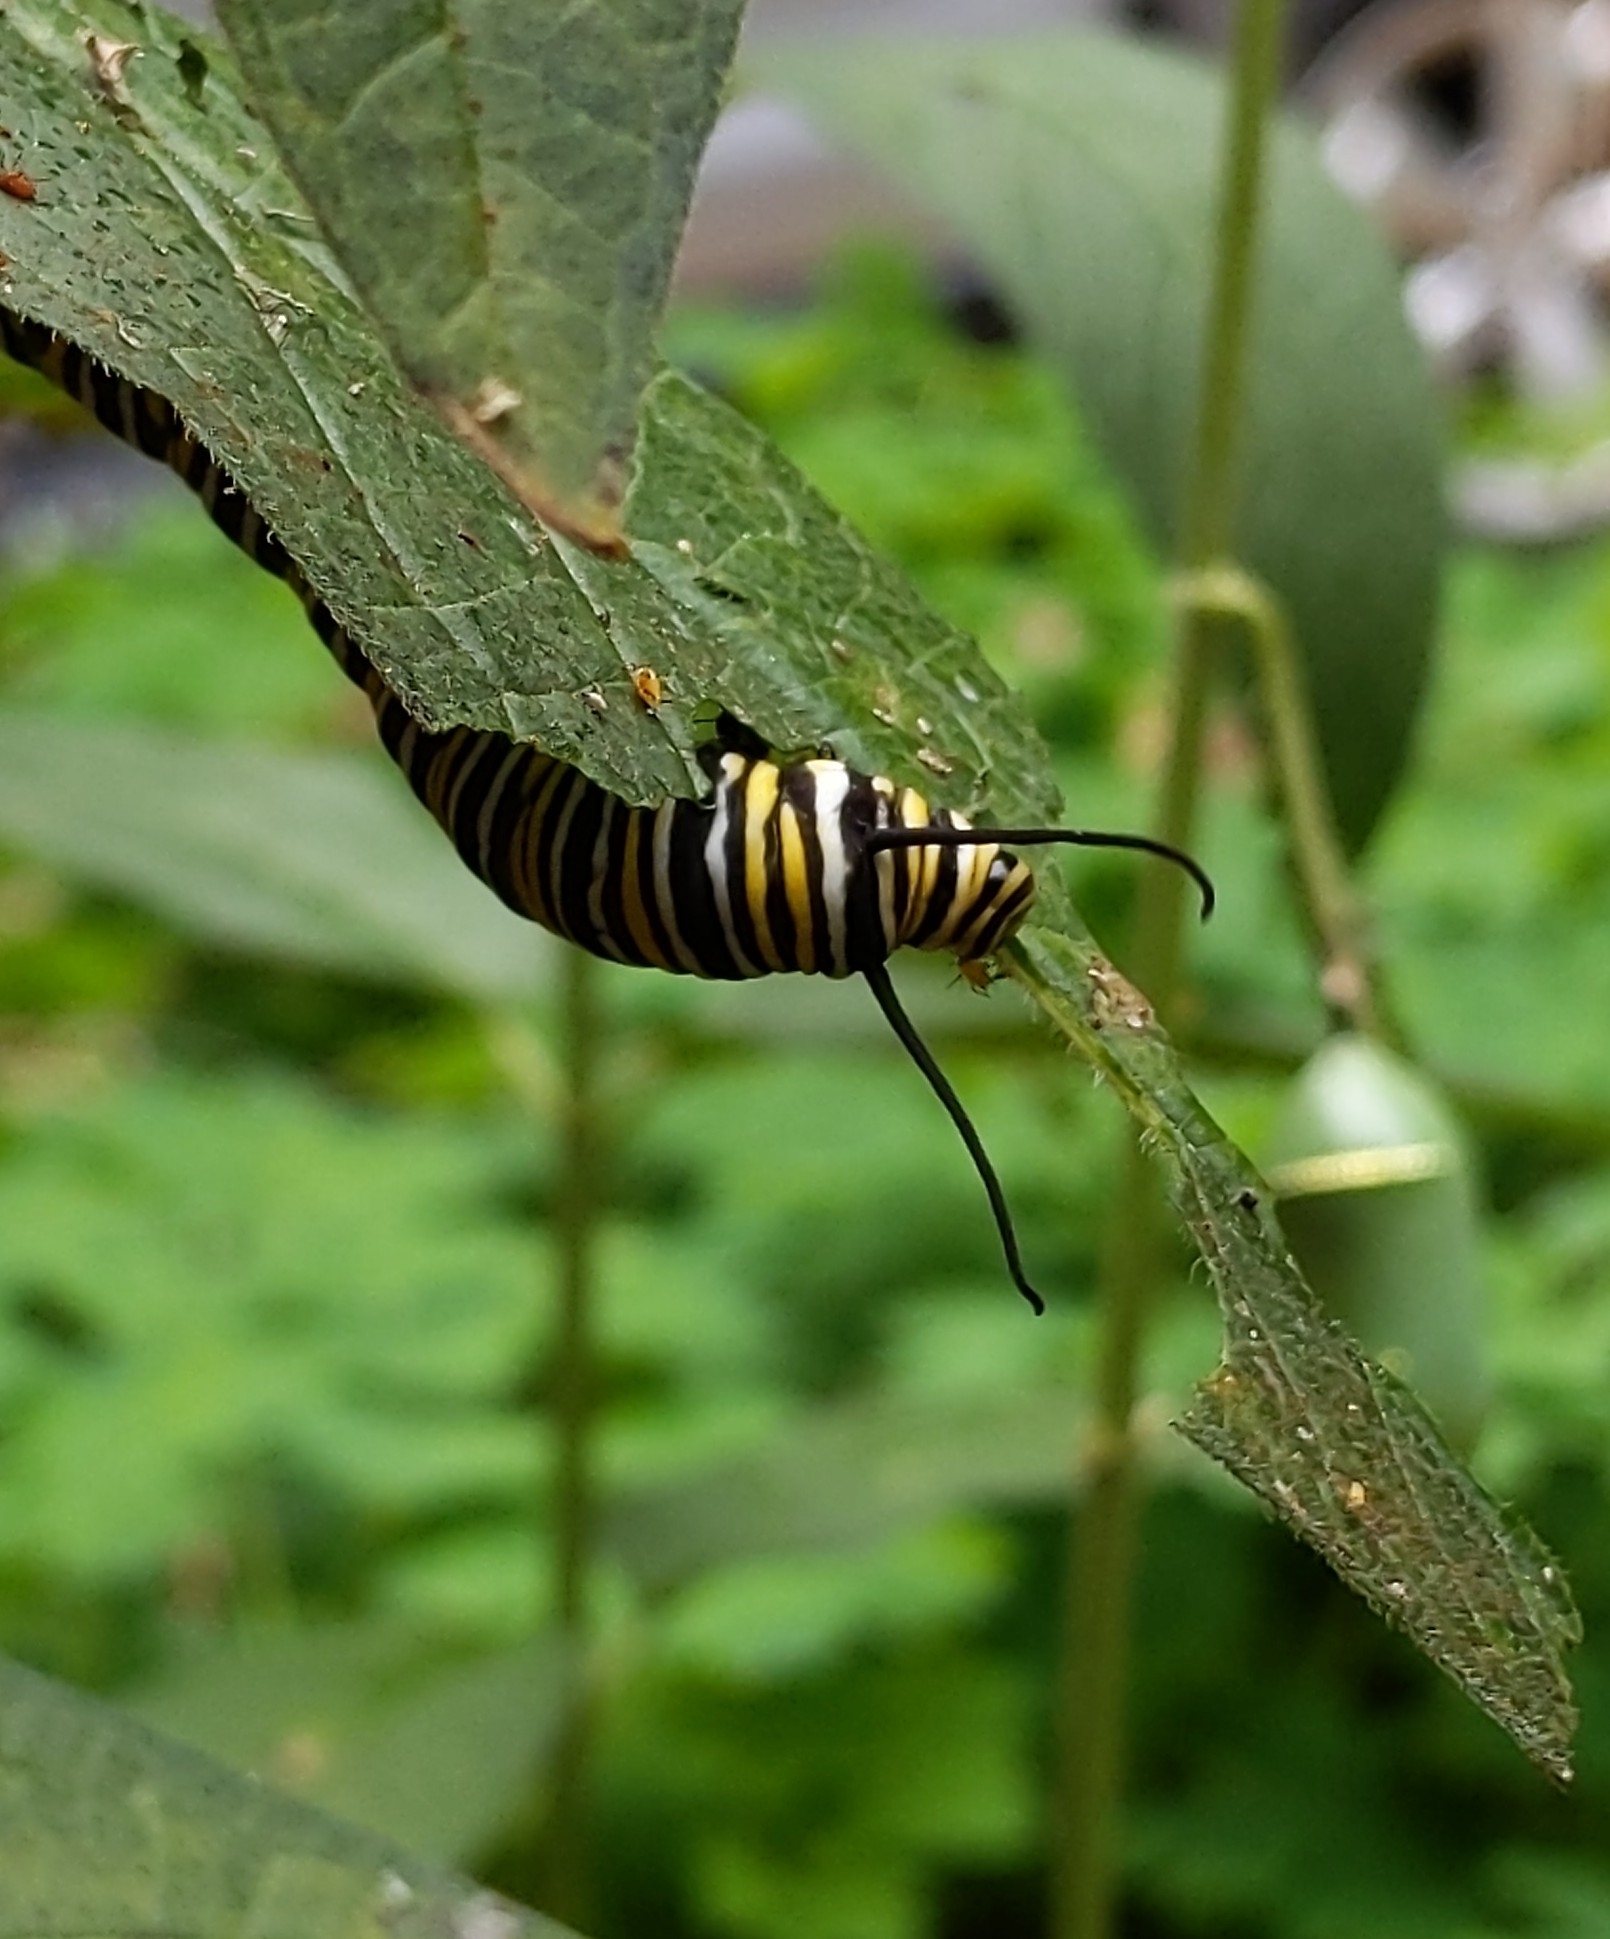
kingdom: Animalia
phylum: Arthropoda
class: Insecta
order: Lepidoptera
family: Nymphalidae
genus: Danaus
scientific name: Danaus plexippus
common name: Monarch
